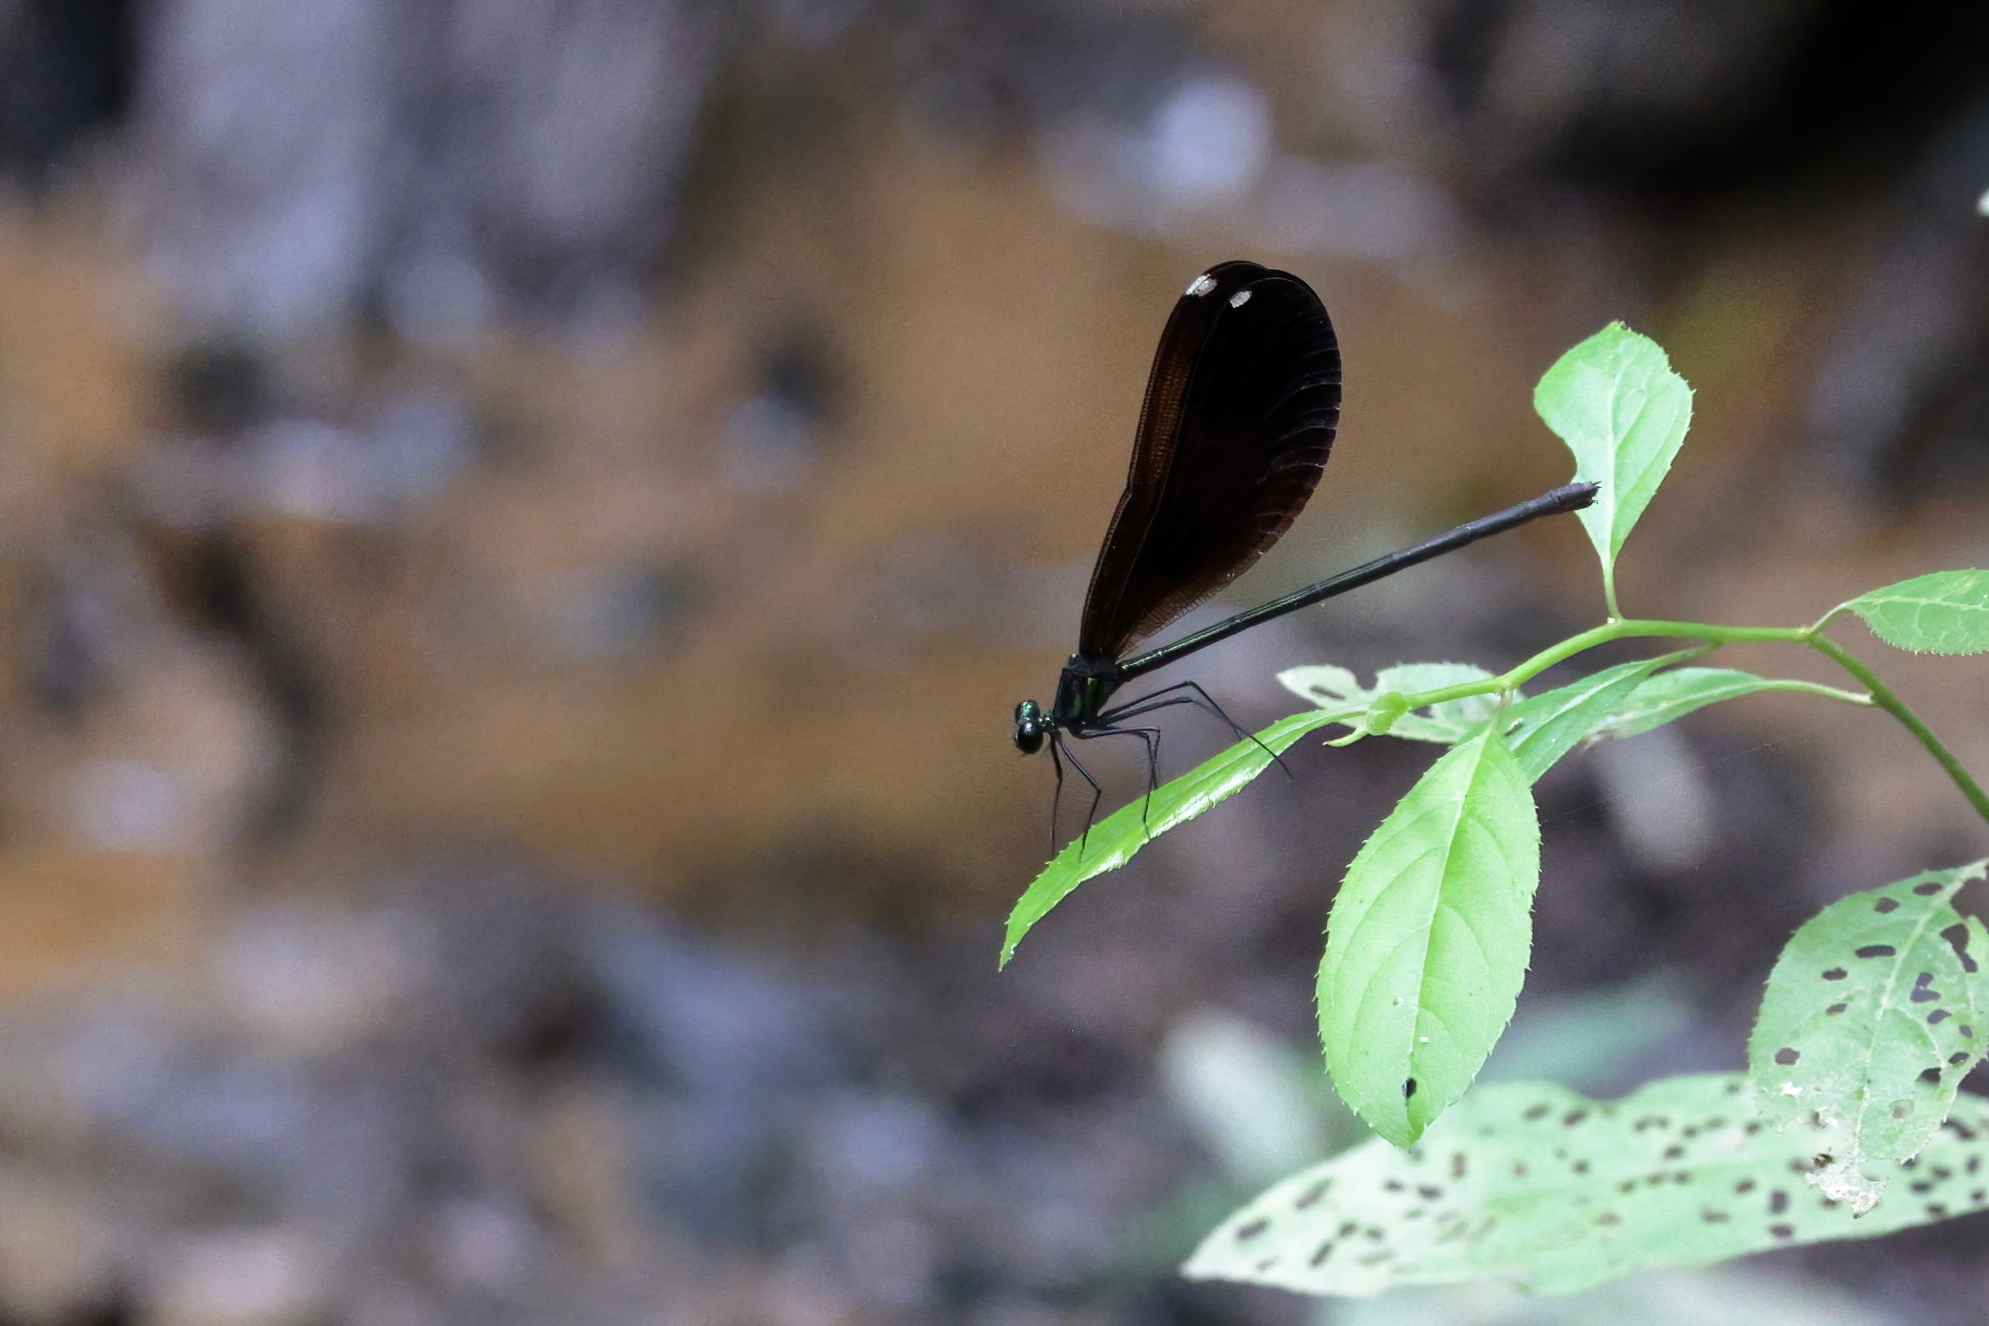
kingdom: Animalia
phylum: Arthropoda
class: Insecta
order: Odonata
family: Calopterygidae
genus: Calopteryx
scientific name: Calopteryx maculata
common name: Ebony jewelwing
